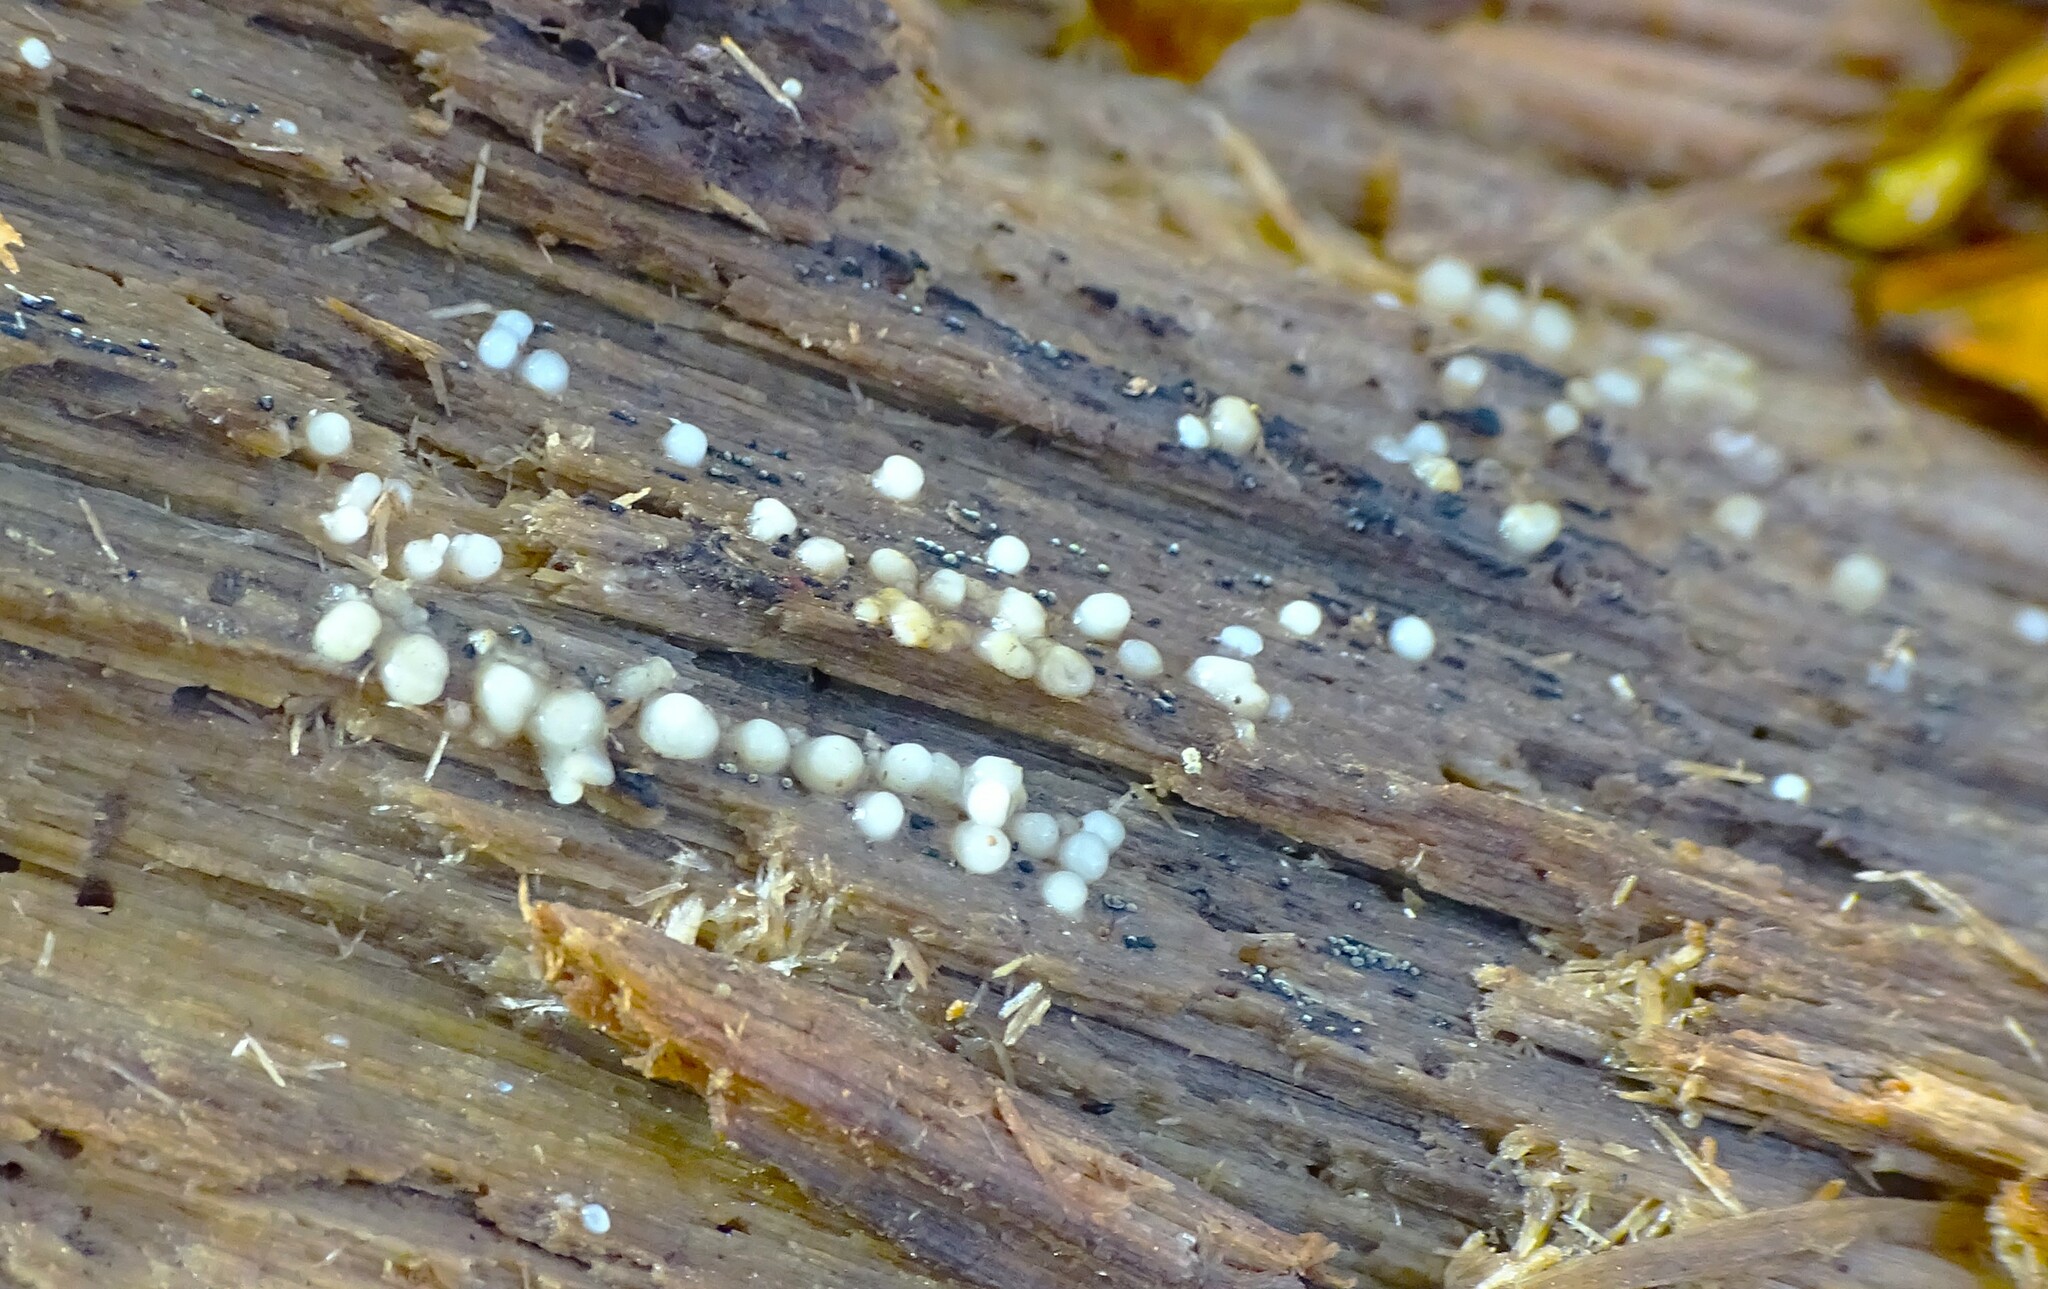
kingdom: Fungi
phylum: Basidiomycota
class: Atractiellomycetes
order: Atractiellales
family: Phleogenaceae
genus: Helicogloea
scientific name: Helicogloea compressa
